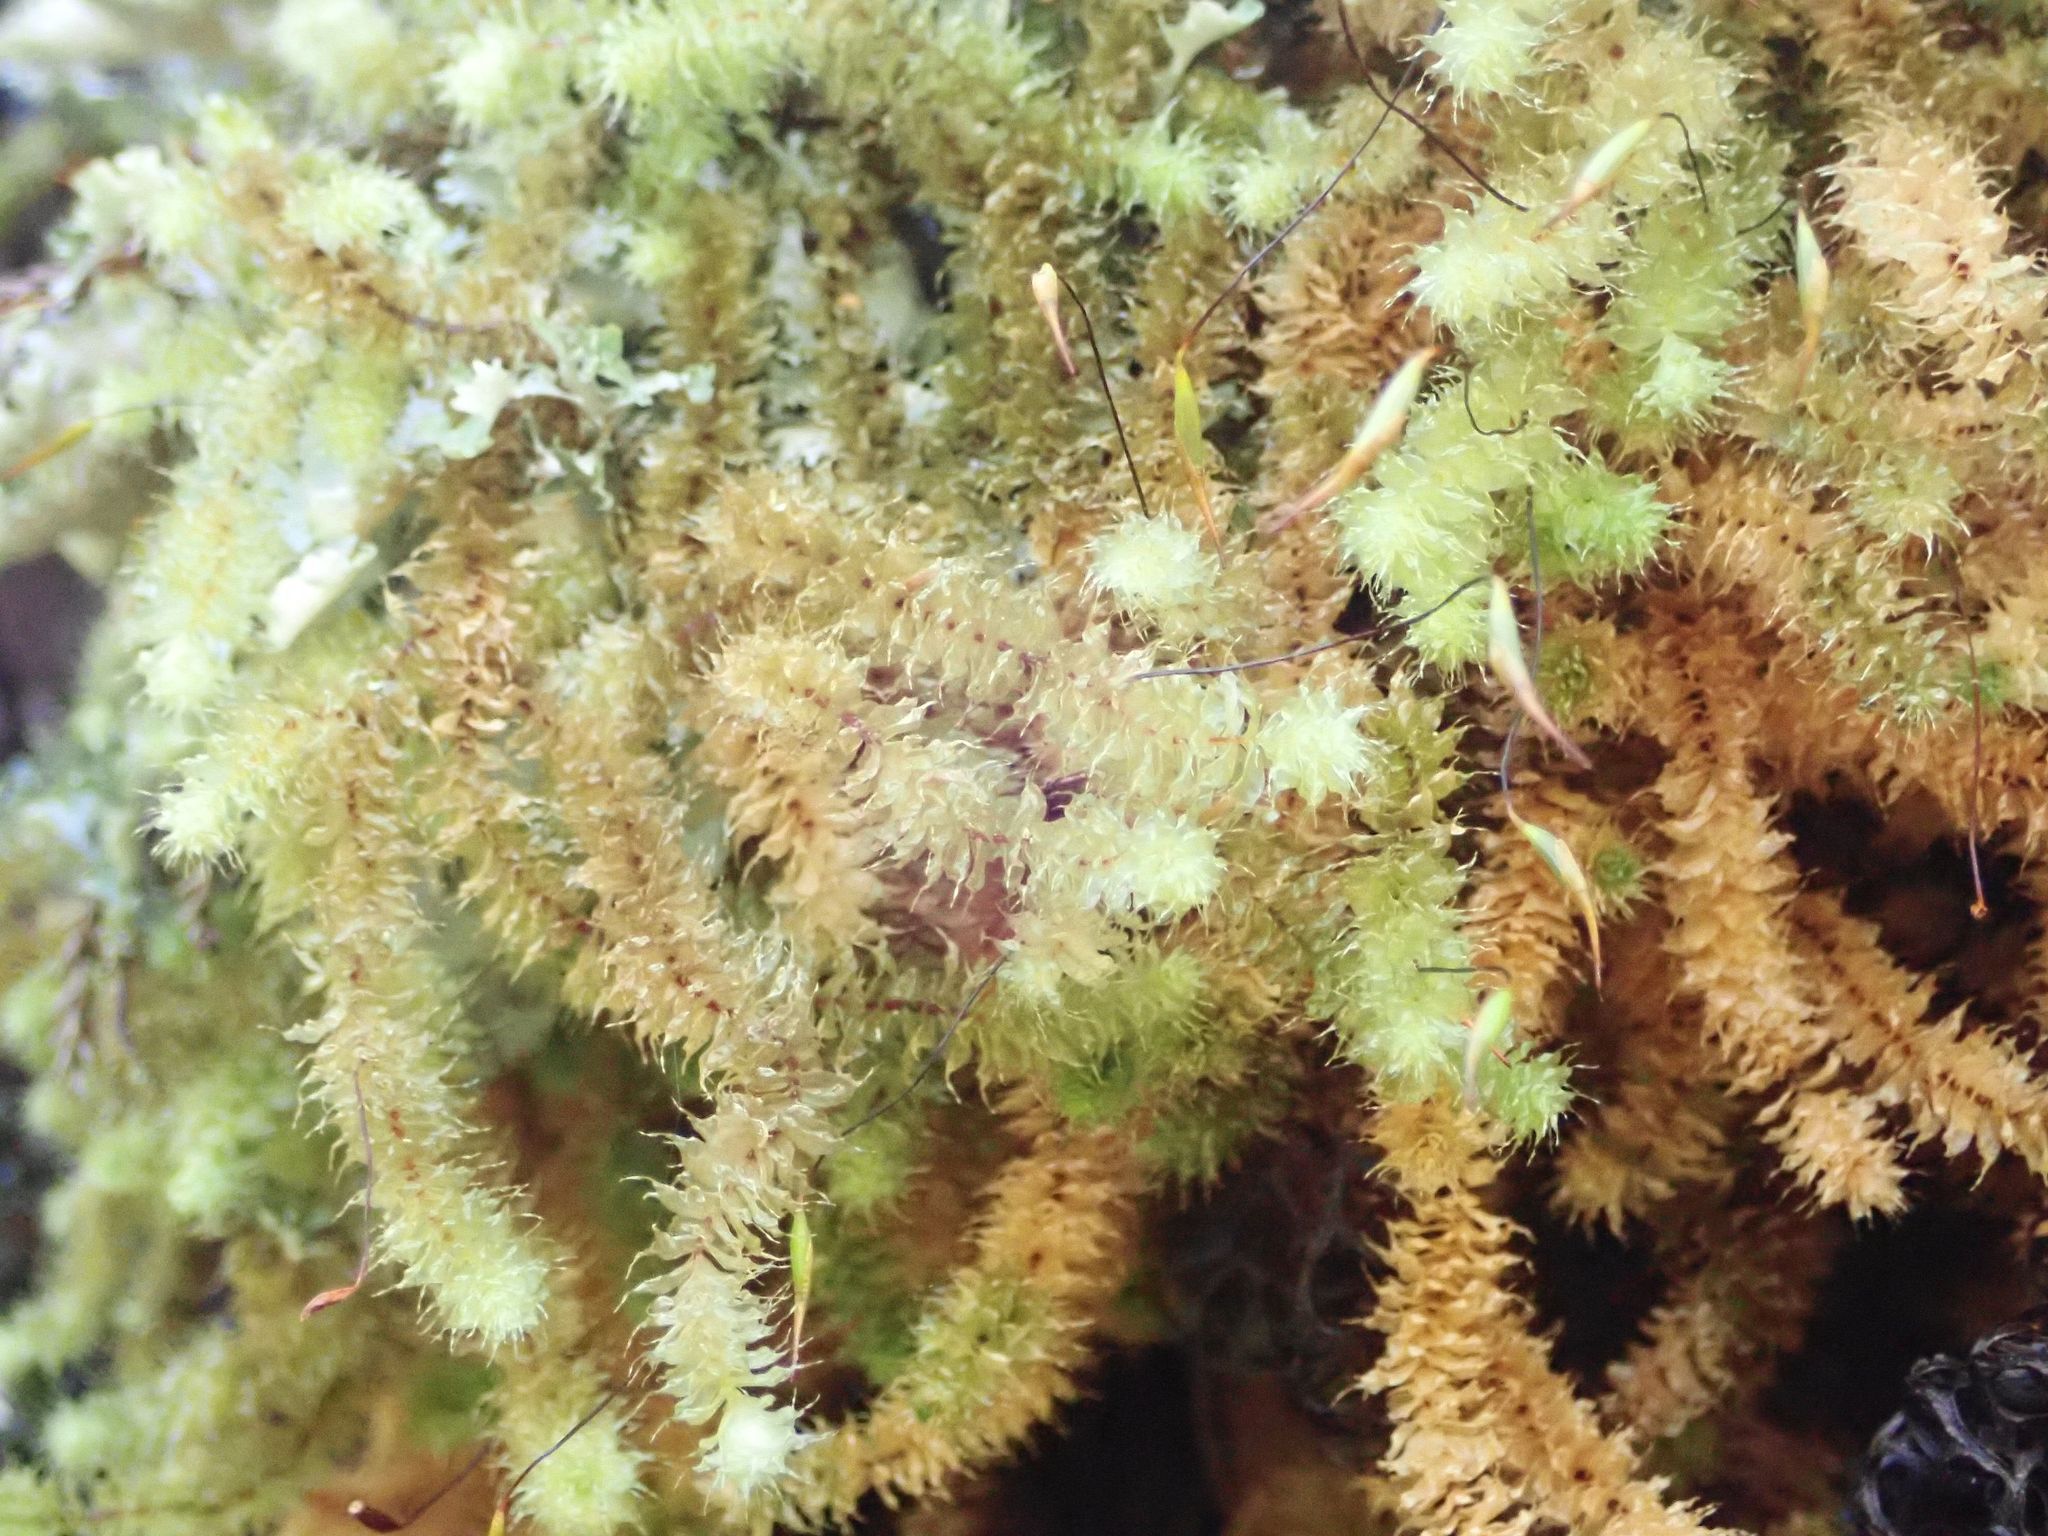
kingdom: Plantae
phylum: Bryophyta
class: Bryopsida
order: Ptychomniales
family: Ptychomniaceae
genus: Ptychomnion
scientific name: Ptychomnion aciculare
